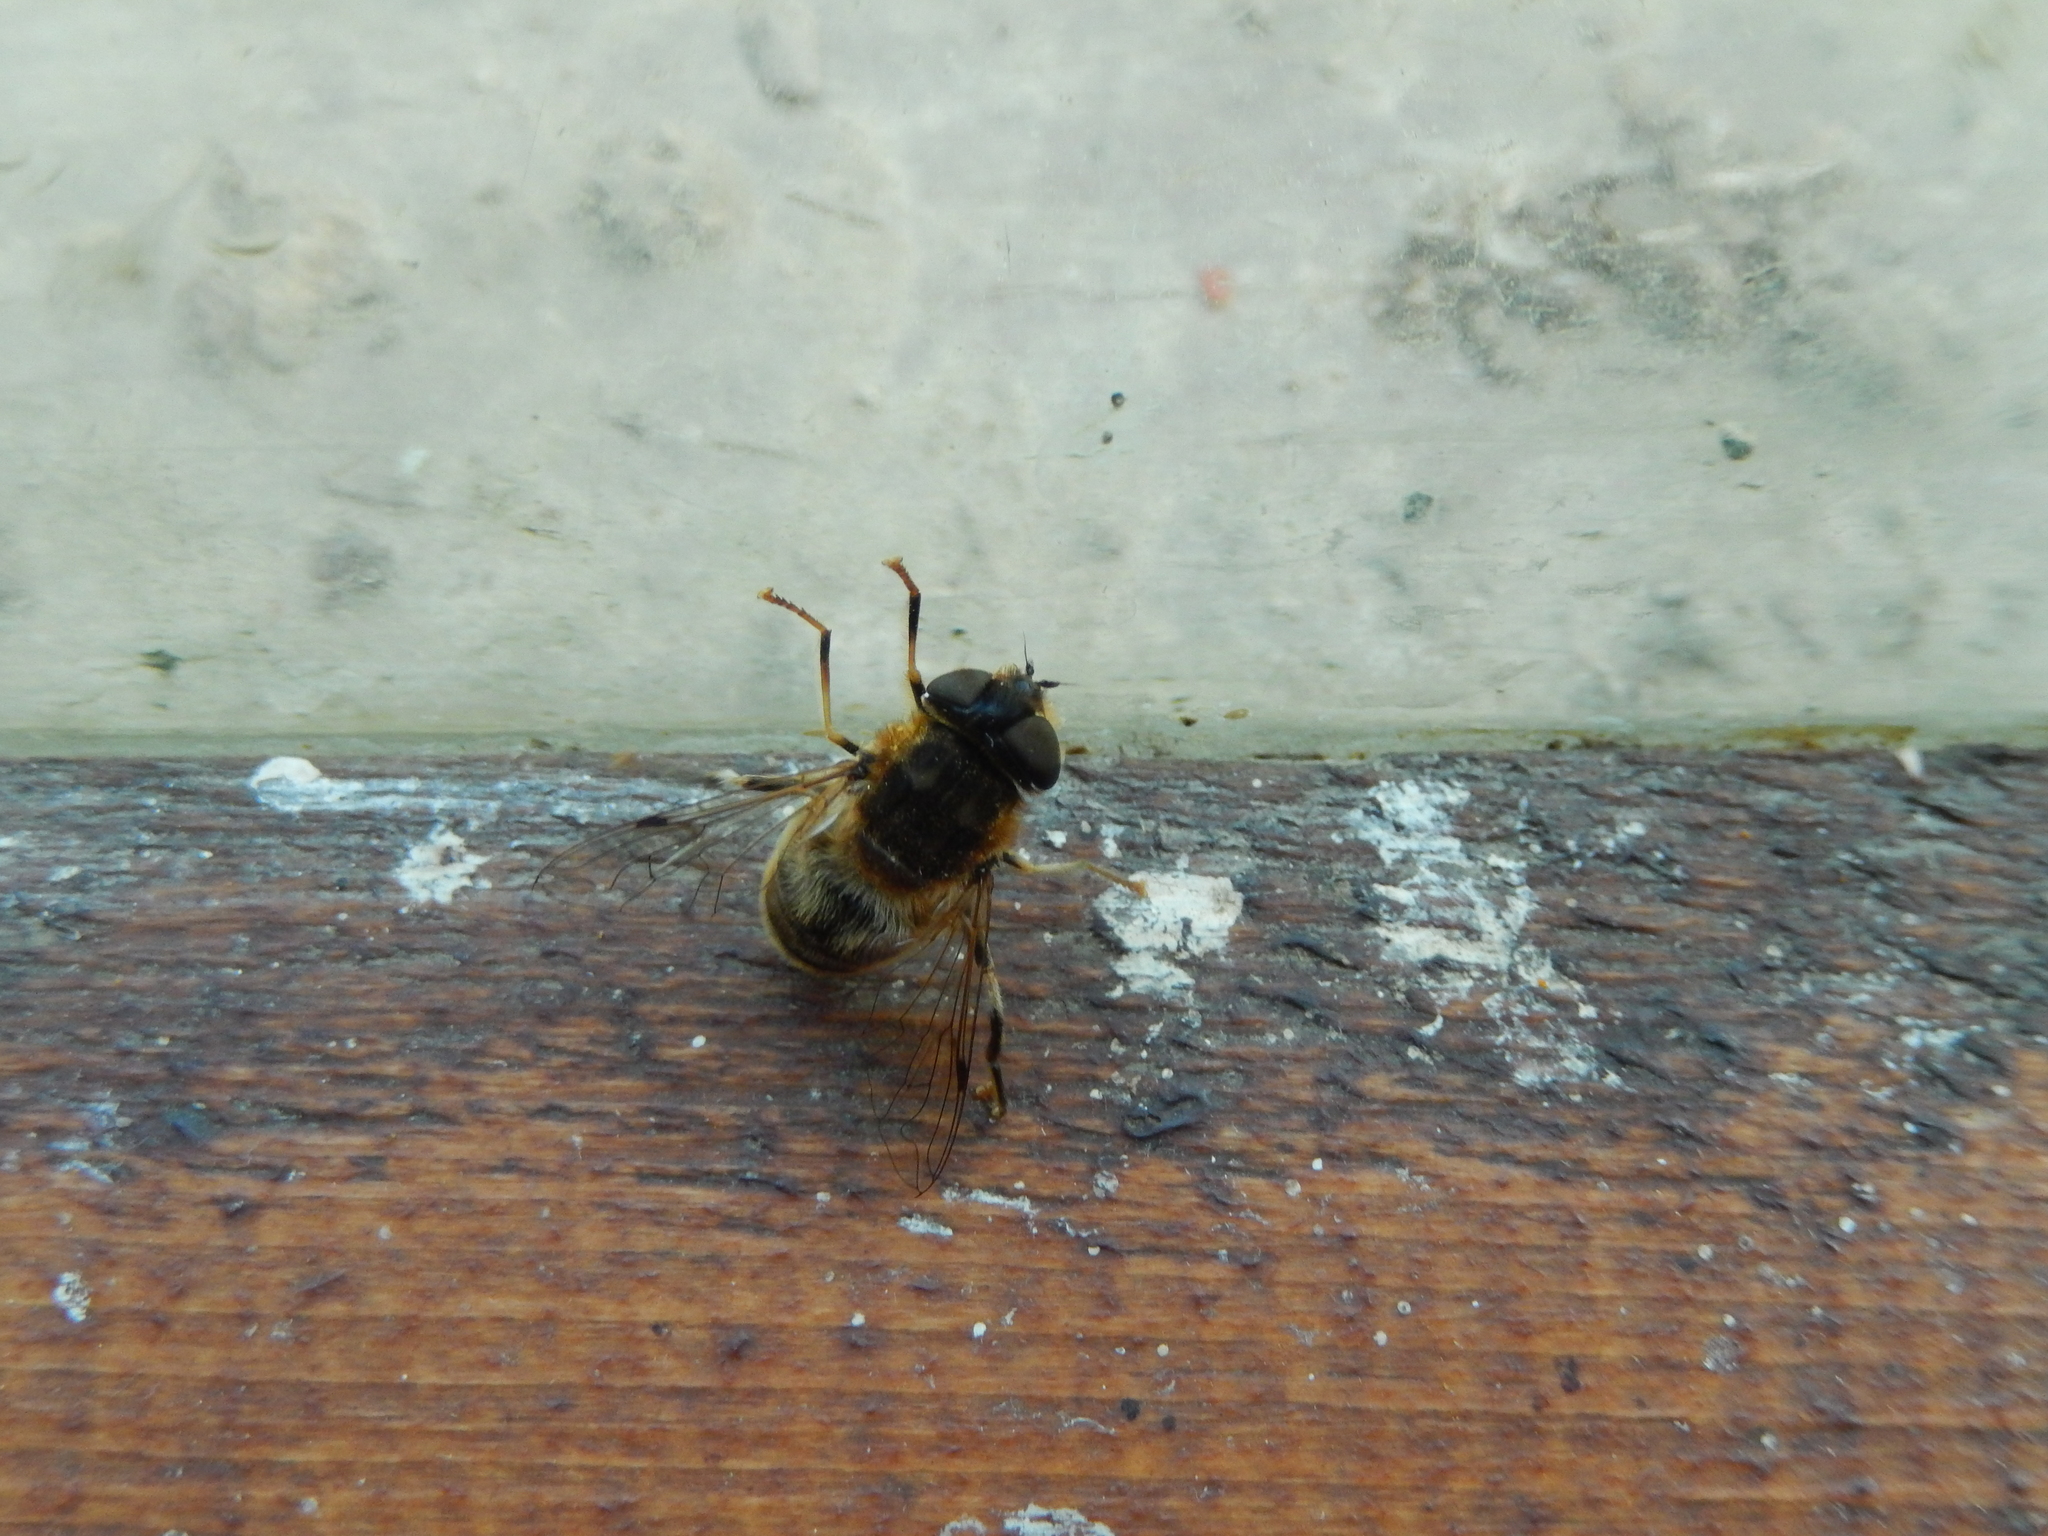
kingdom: Animalia
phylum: Arthropoda
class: Insecta
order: Diptera
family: Syrphidae
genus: Eristalis
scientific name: Eristalis pertinax
